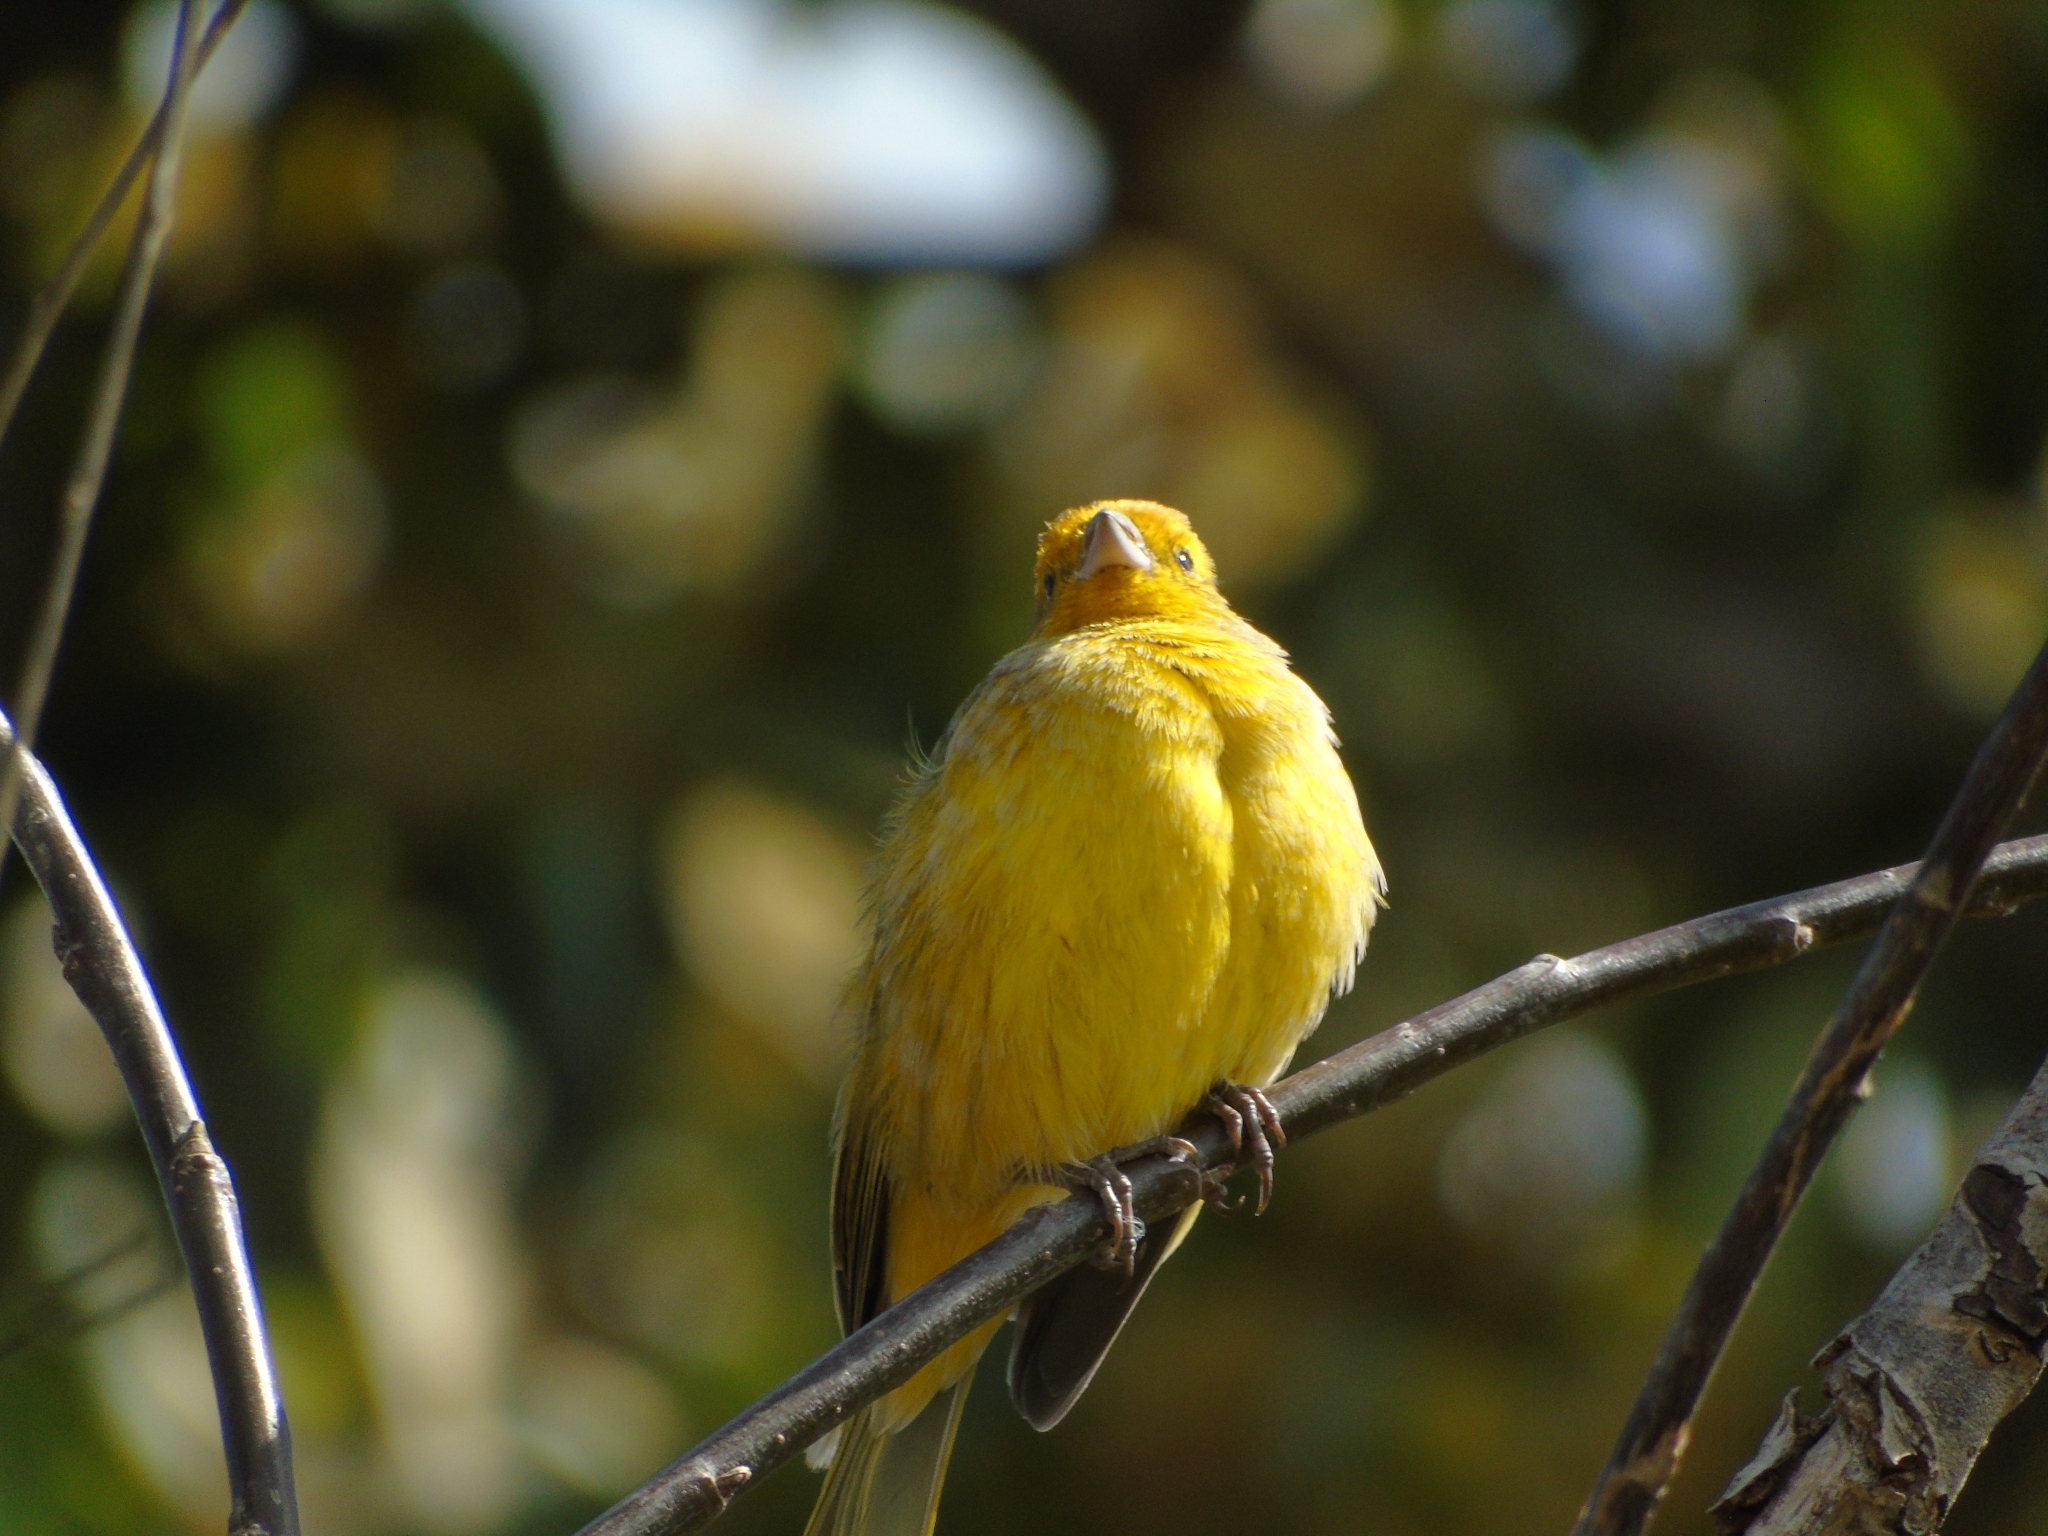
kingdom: Animalia
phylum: Chordata
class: Aves
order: Passeriformes
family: Thraupidae
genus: Sicalis
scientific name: Sicalis flaveola
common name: Saffron finch
